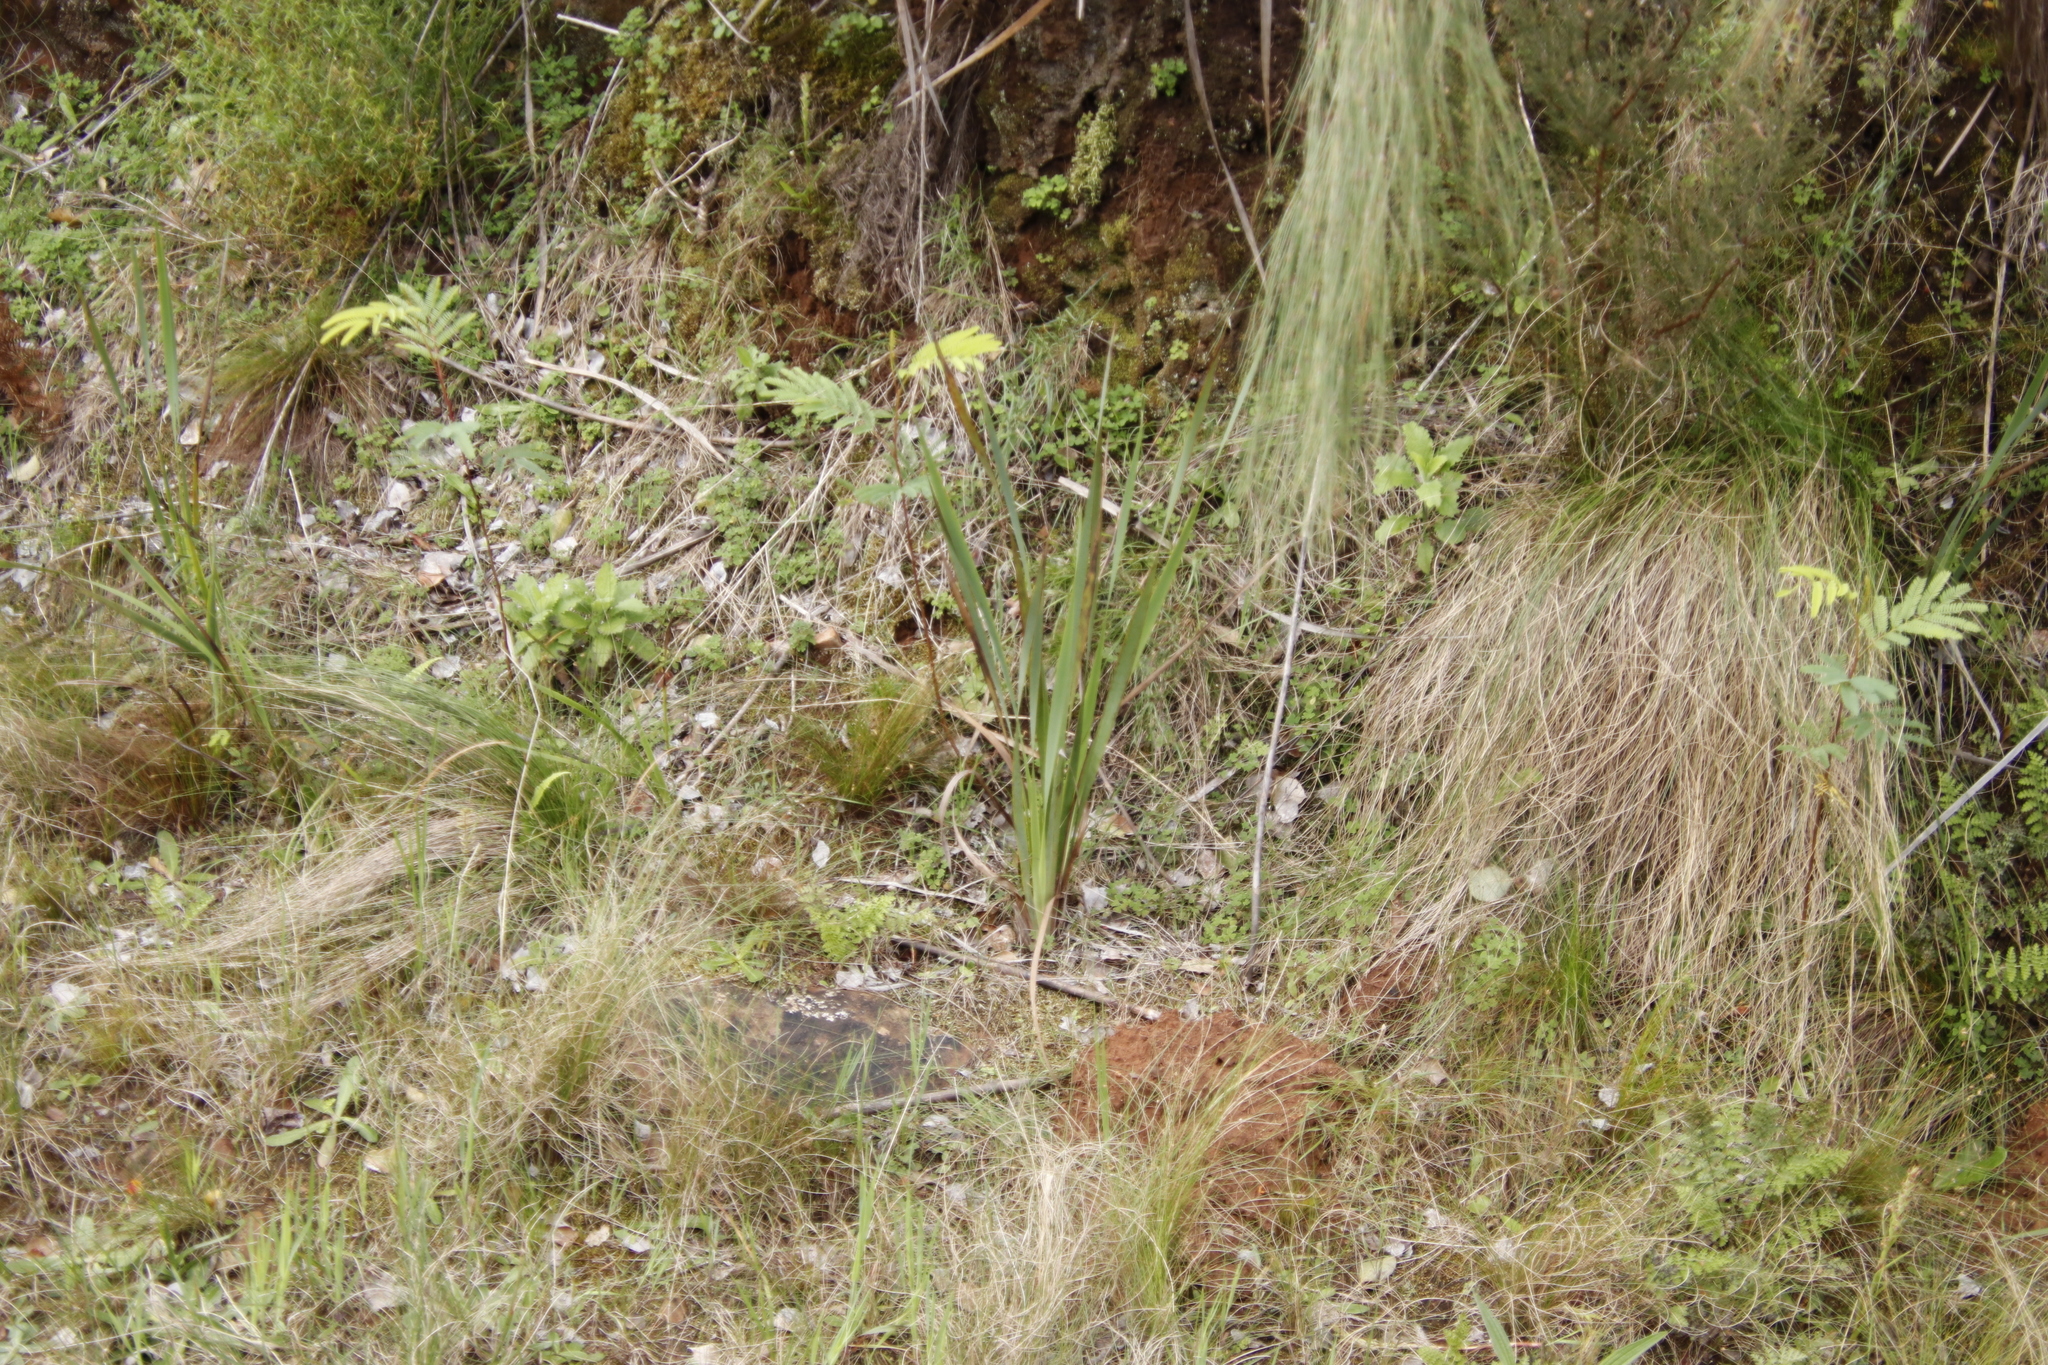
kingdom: Plantae
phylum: Tracheophyta
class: Magnoliopsida
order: Fabales
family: Fabaceae
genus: Paraserianthes
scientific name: Paraserianthes lophantha
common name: Plume albizia
